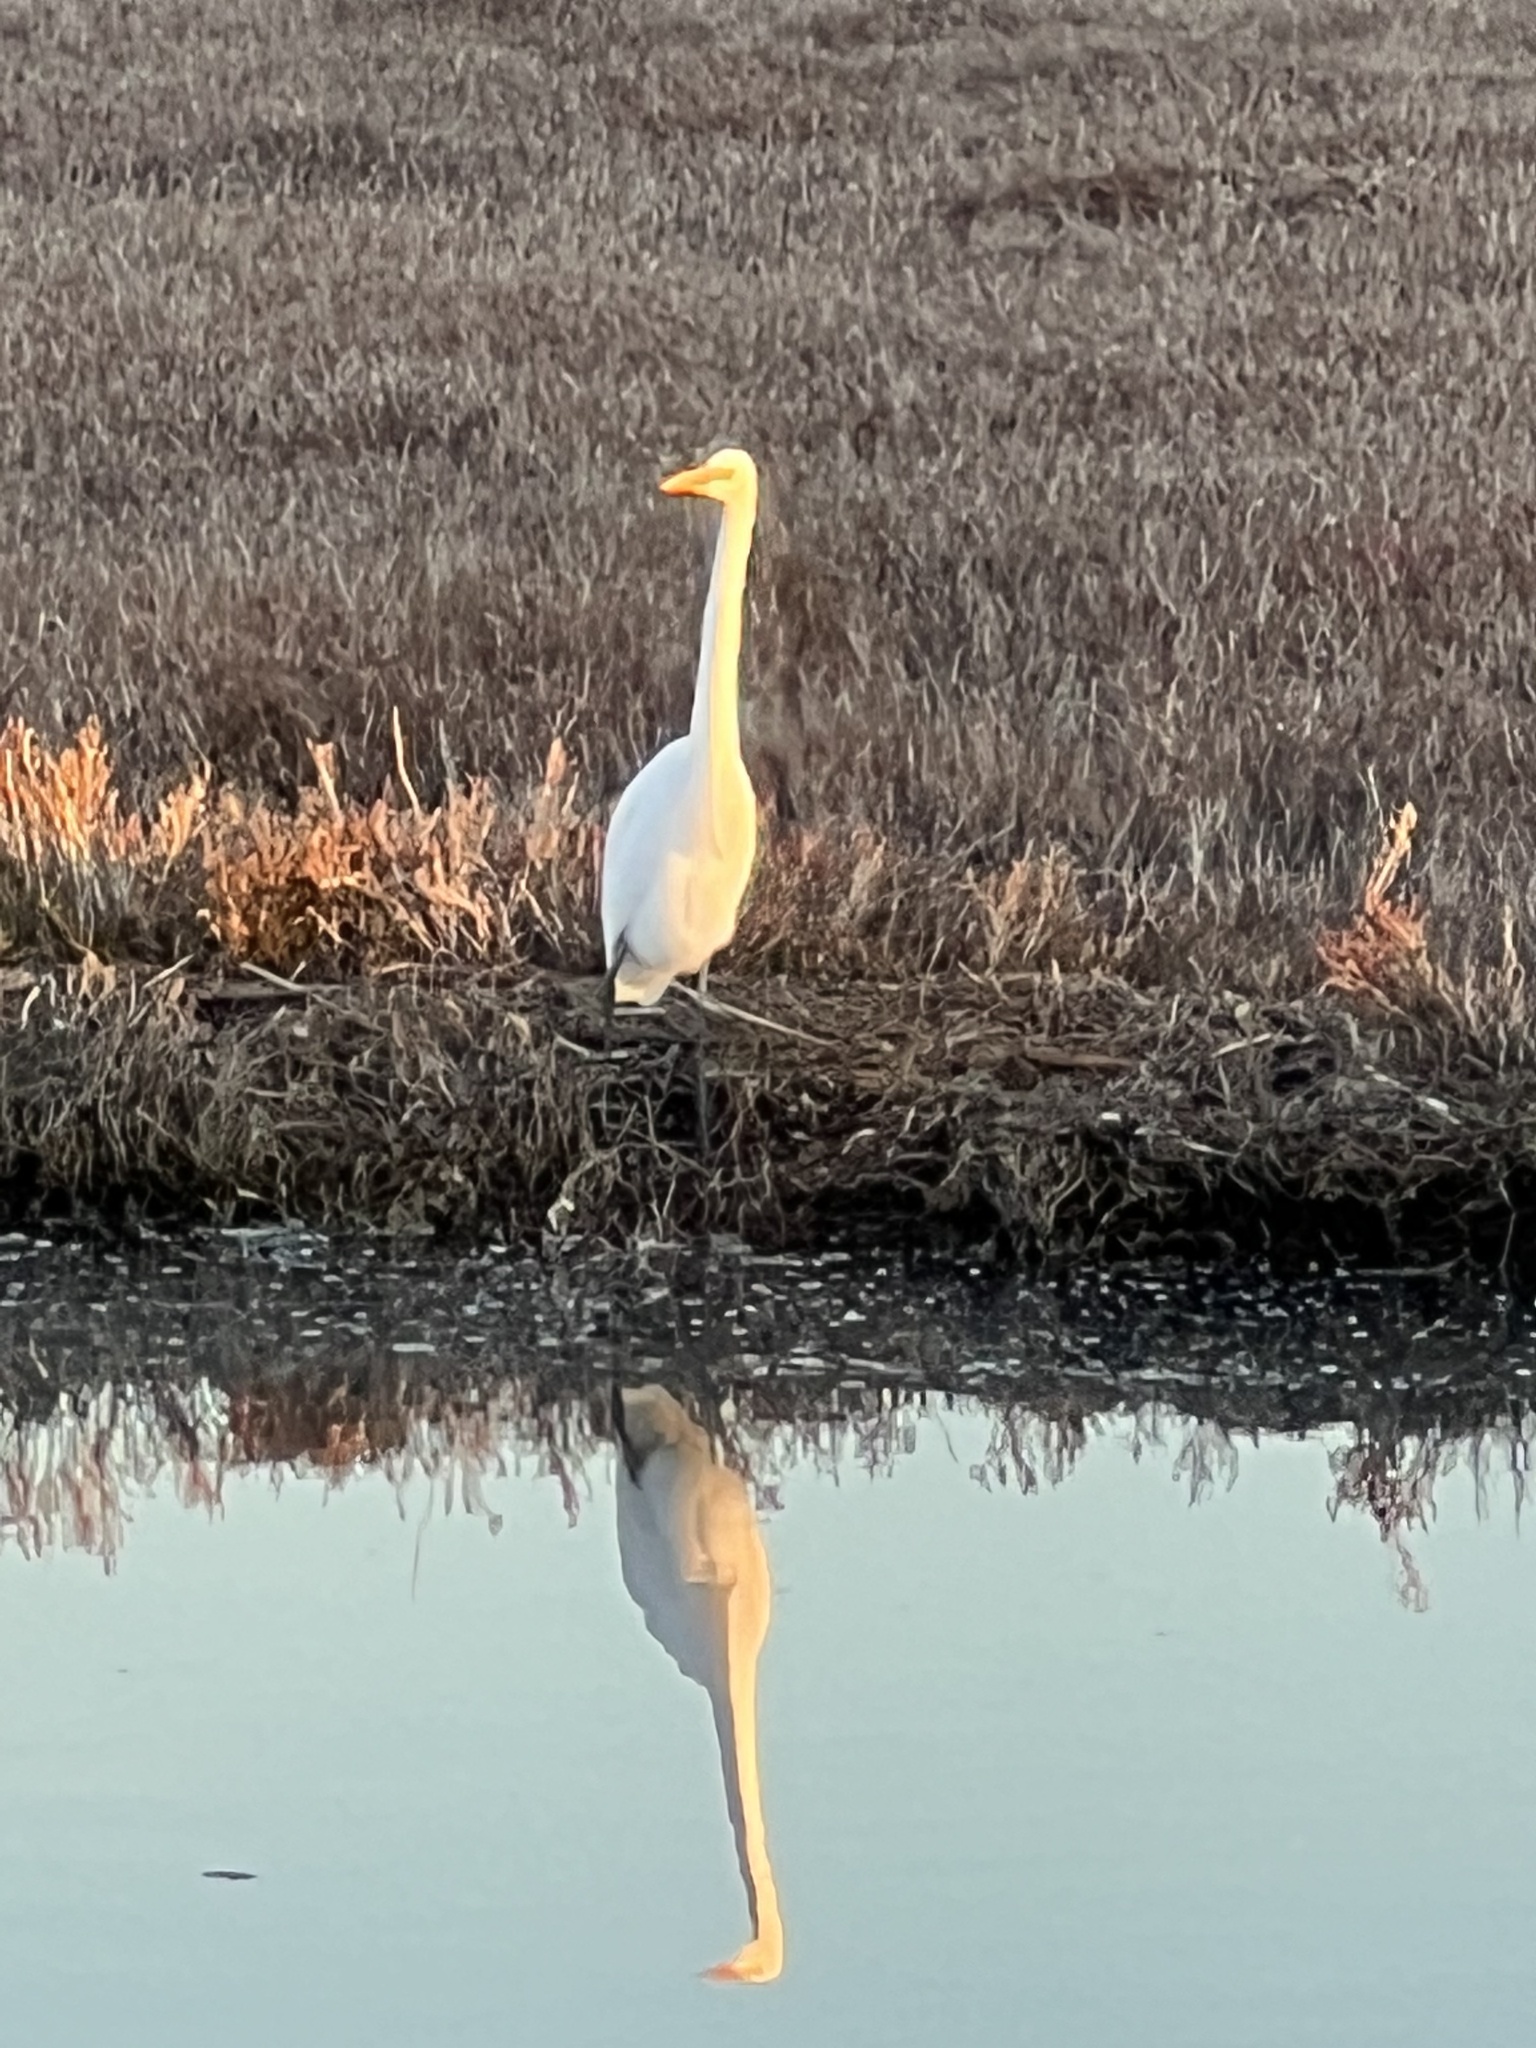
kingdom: Animalia
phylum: Chordata
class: Aves
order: Pelecaniformes
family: Ardeidae
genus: Ardea
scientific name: Ardea alba
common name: Great egret
